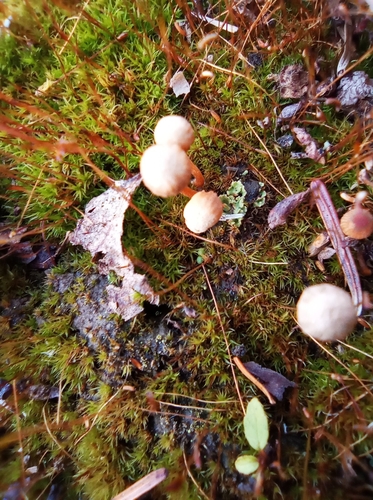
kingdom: Fungi
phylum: Basidiomycota
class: Agaricomycetes
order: Agaricales
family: Hymenogastraceae
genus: Galerina
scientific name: Galerina
